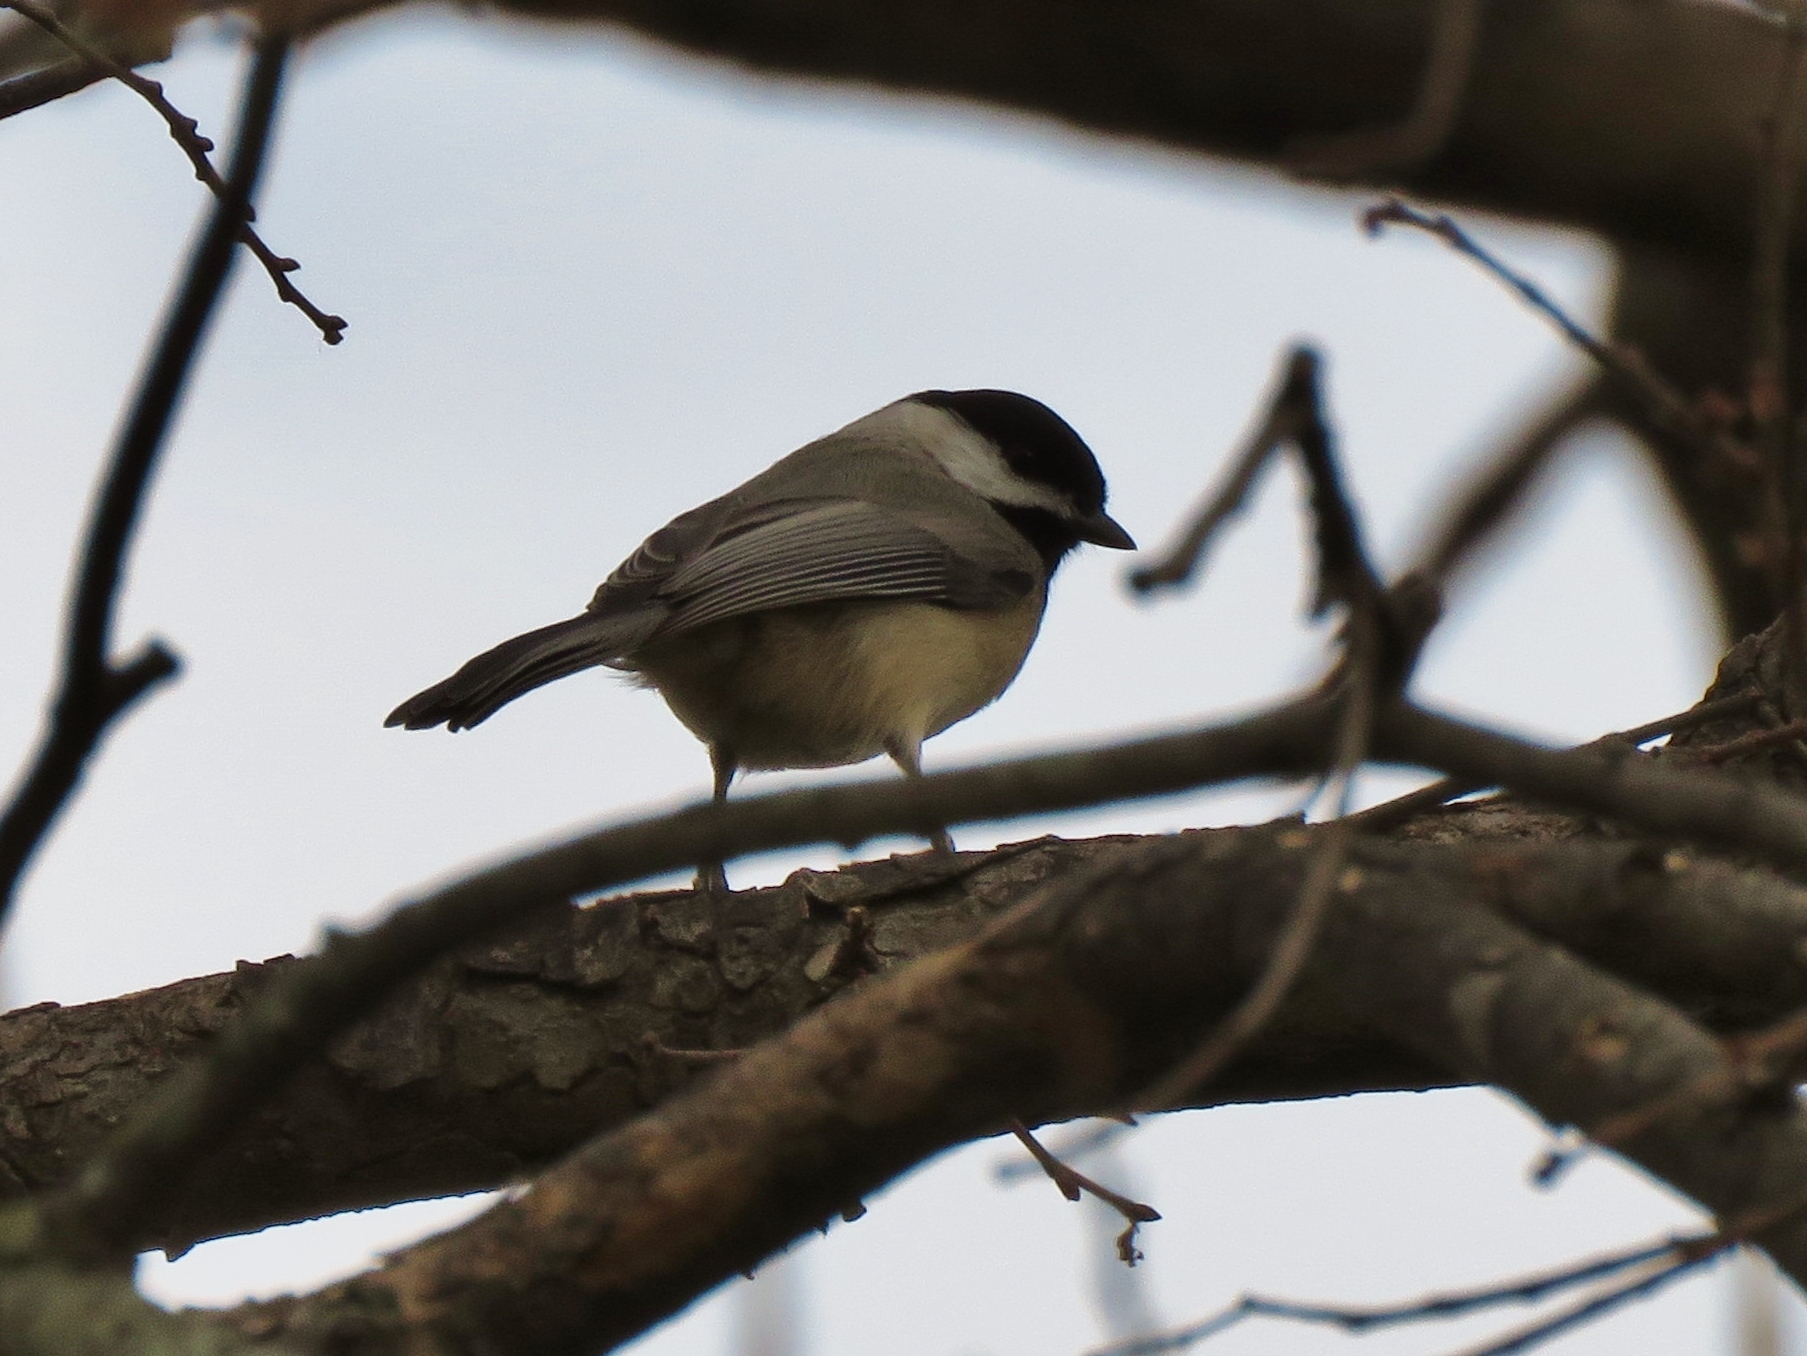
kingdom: Animalia
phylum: Chordata
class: Aves
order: Passeriformes
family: Paridae
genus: Poecile
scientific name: Poecile carolinensis
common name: Carolina chickadee
